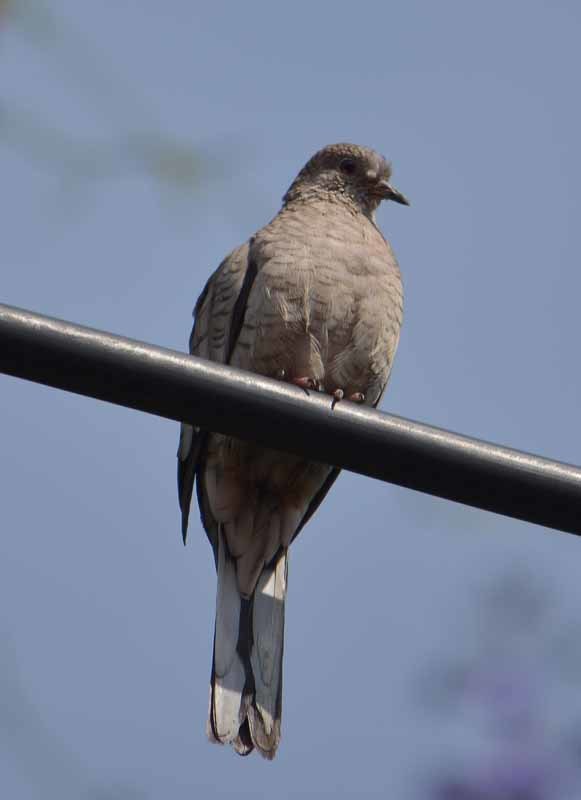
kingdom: Animalia
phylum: Chordata
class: Aves
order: Columbiformes
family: Columbidae
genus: Columbina
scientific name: Columbina inca
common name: Inca dove
